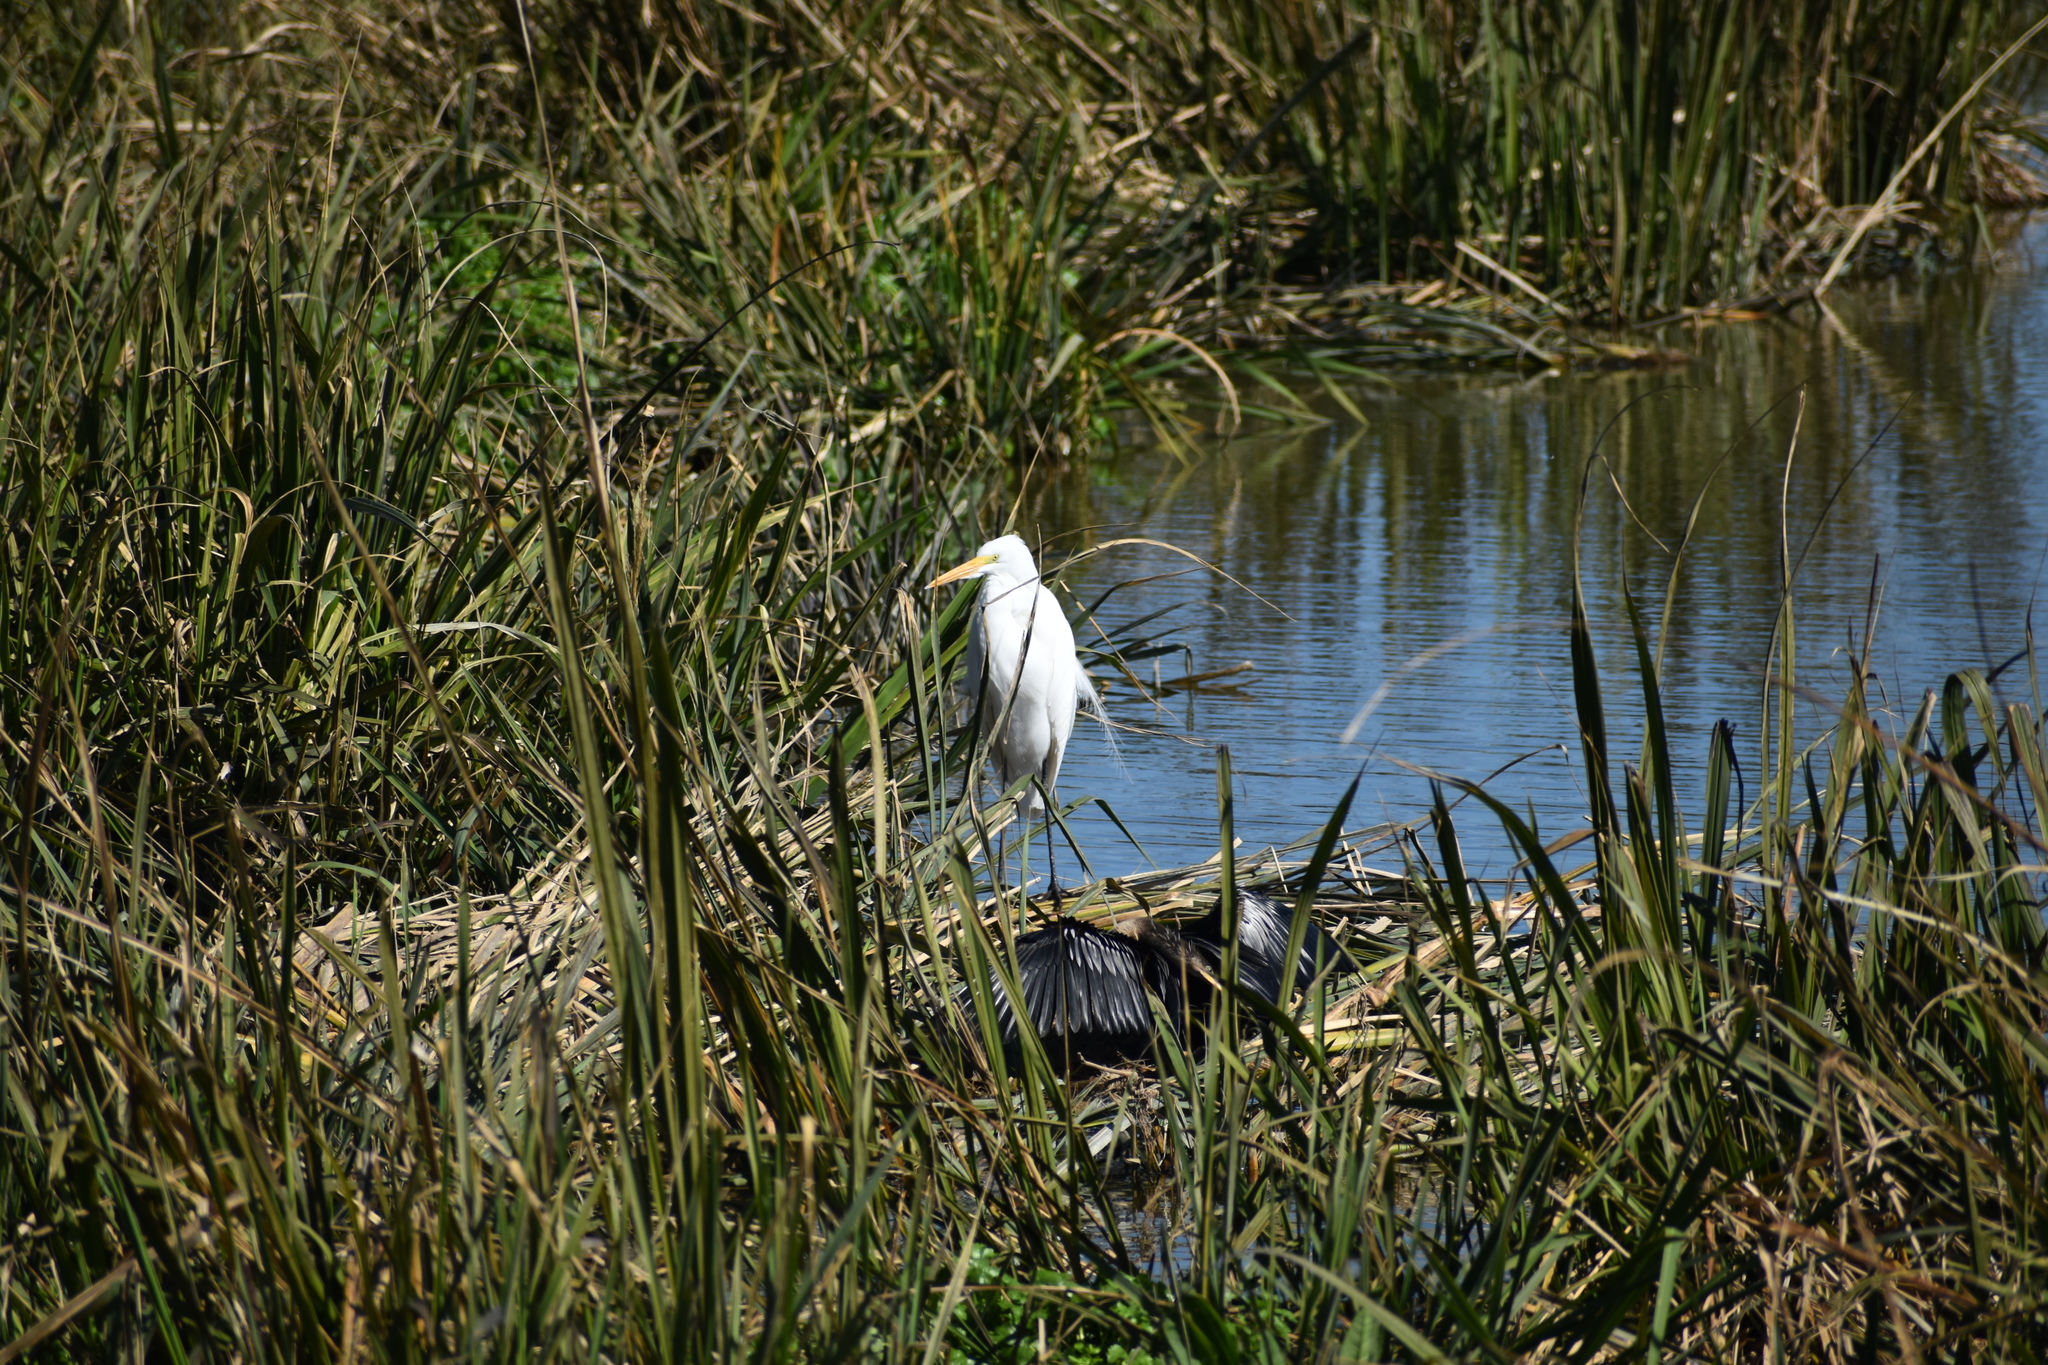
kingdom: Animalia
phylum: Chordata
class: Aves
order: Suliformes
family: Anhingidae
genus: Anhinga
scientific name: Anhinga anhinga
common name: Anhinga
